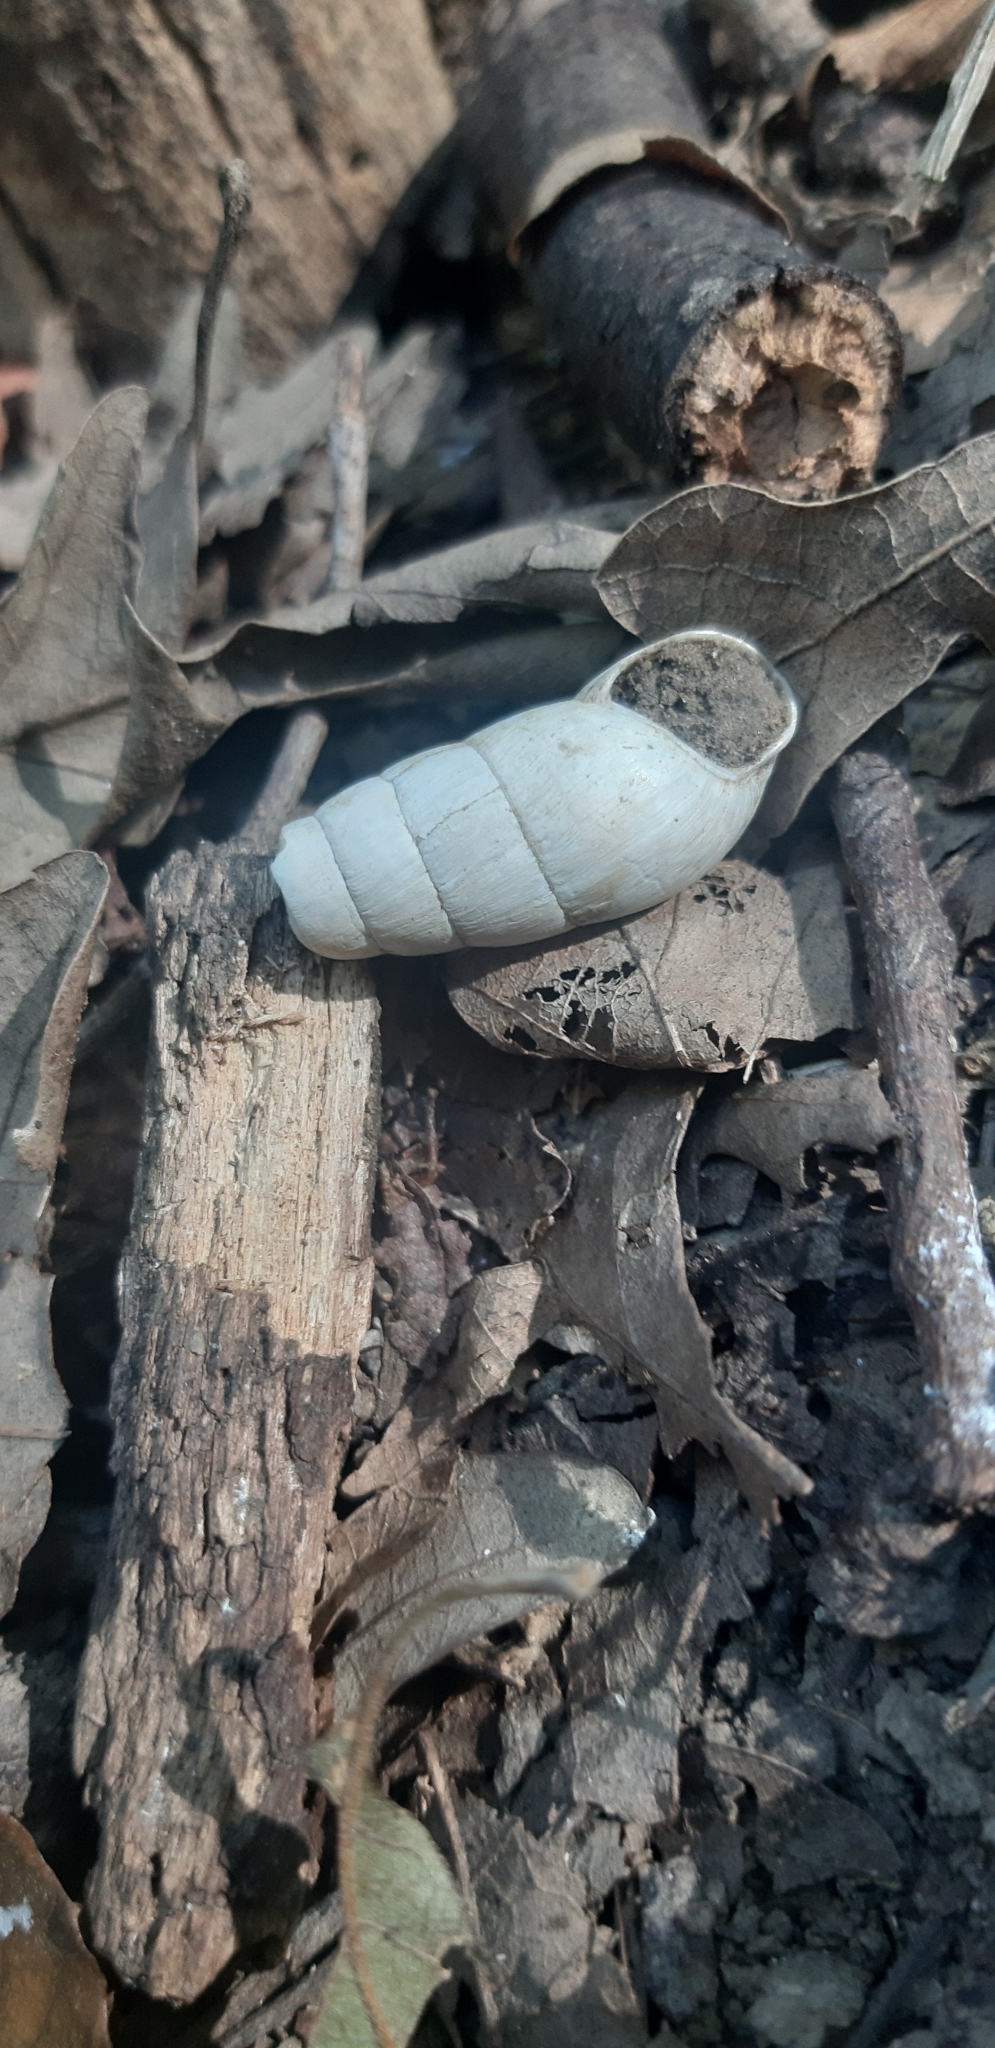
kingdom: Animalia
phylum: Mollusca
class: Gastropoda
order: Stylommatophora
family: Achatinidae
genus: Rumina
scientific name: Rumina decollata
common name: Decollate snail
